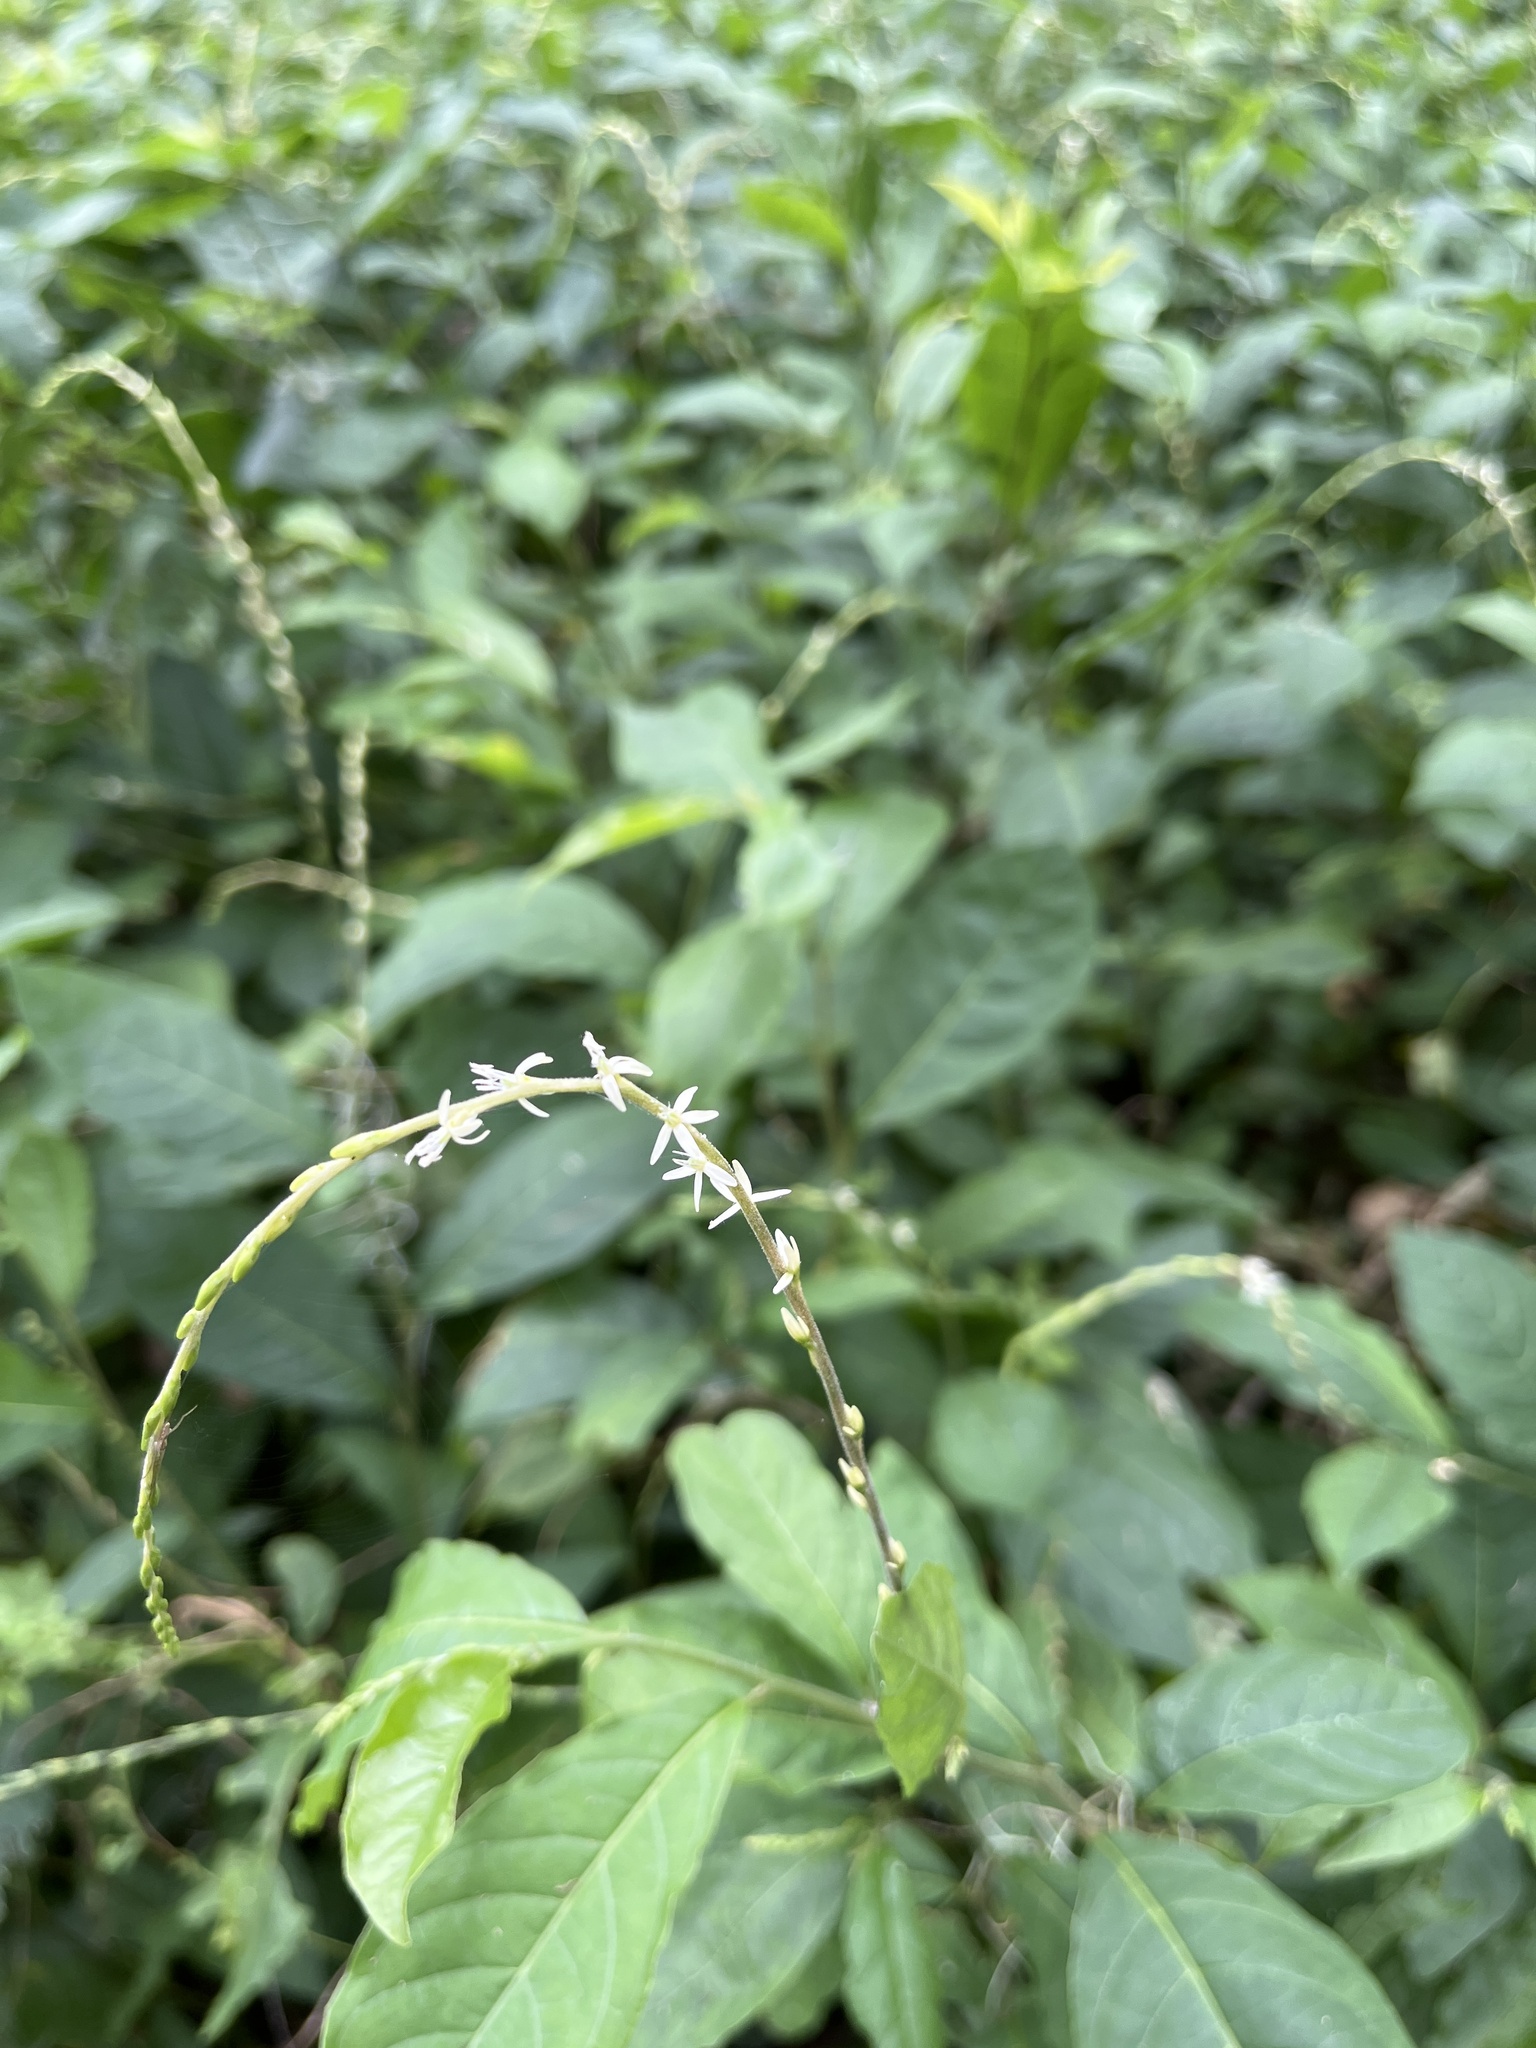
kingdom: Plantae
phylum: Tracheophyta
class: Magnoliopsida
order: Caryophyllales
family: Phytolaccaceae
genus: Petiveria
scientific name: Petiveria alliacea
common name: Garlicweed
